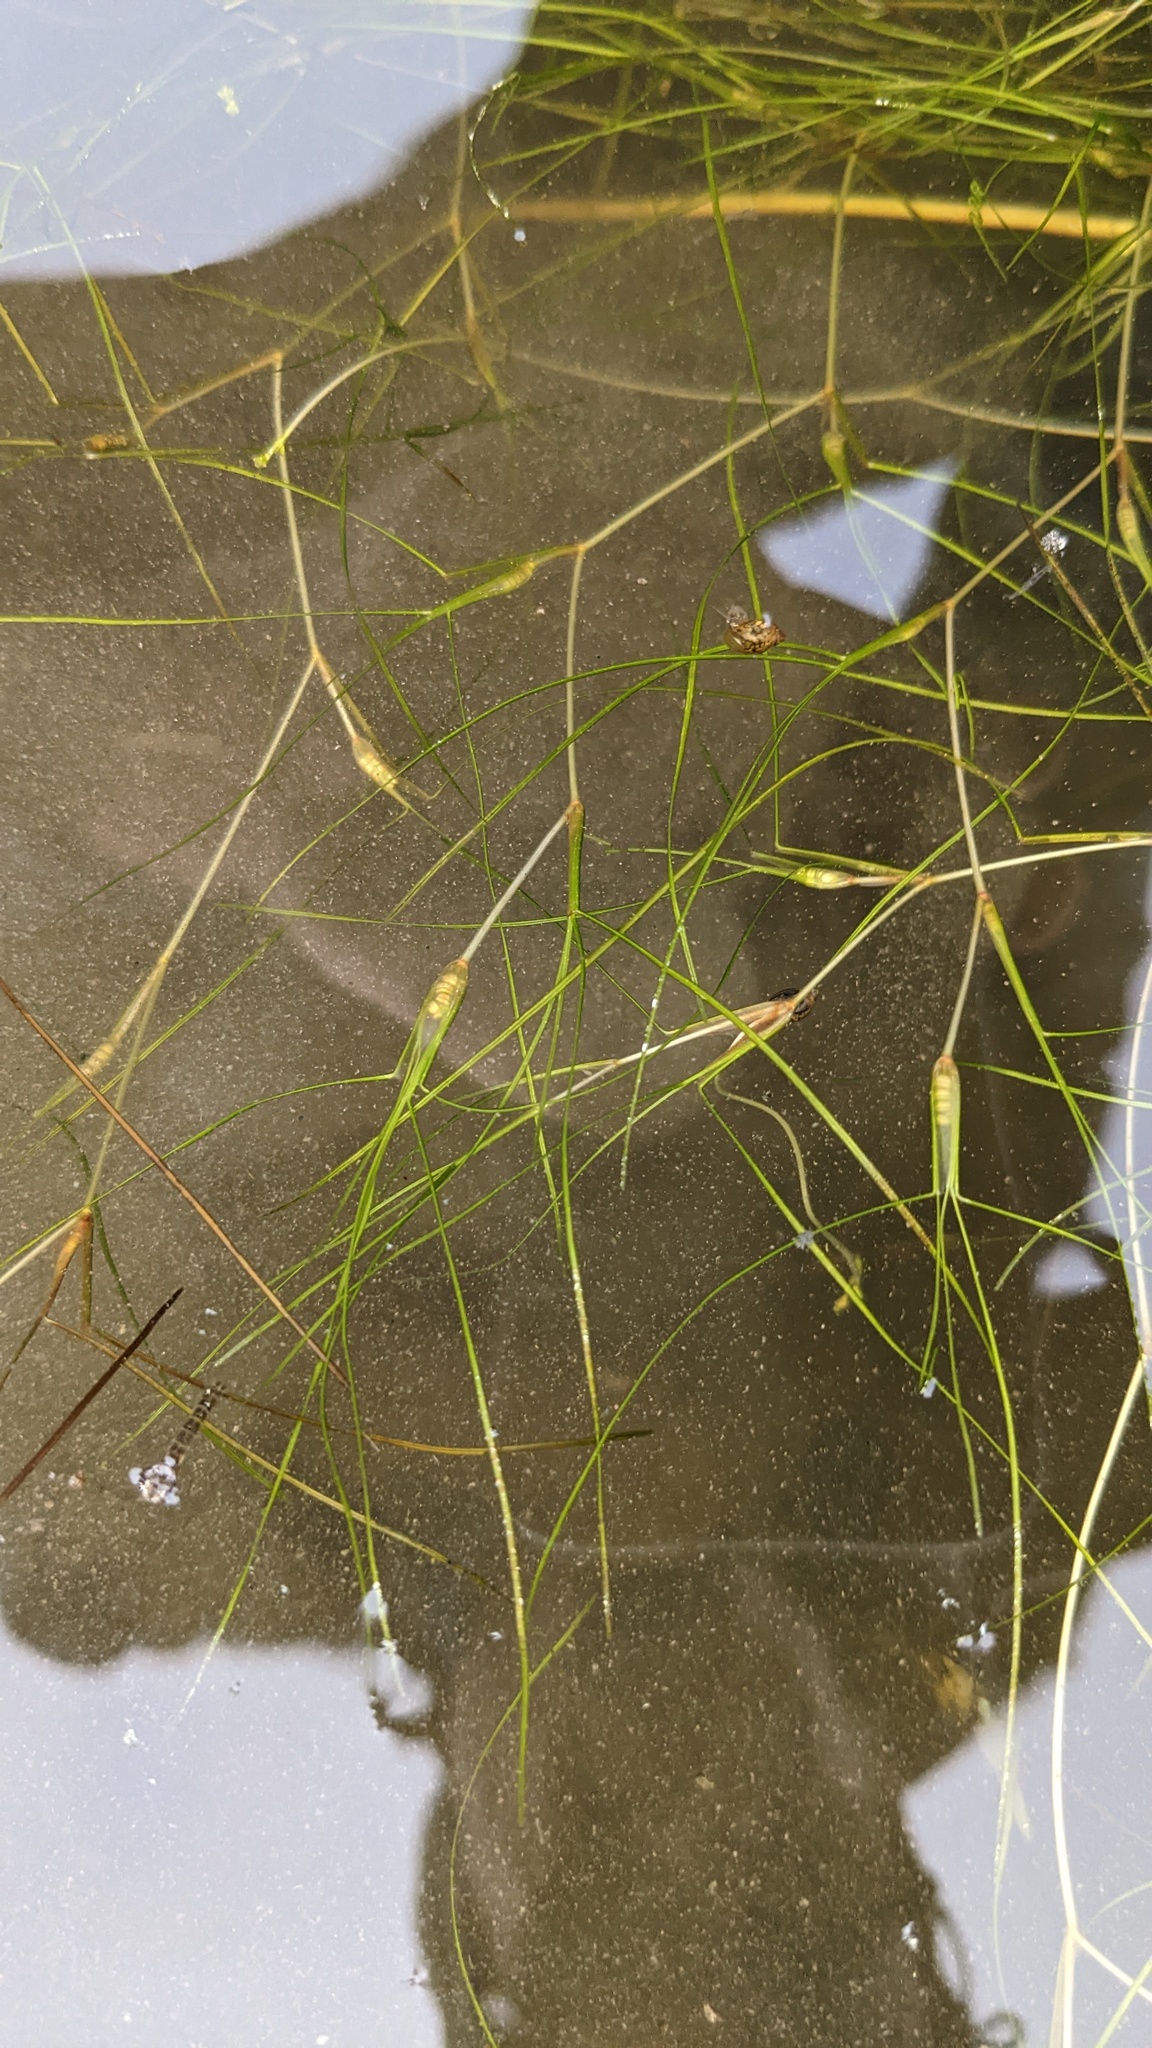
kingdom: Plantae
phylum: Tracheophyta
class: Liliopsida
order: Alismatales
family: Ruppiaceae
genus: Ruppia
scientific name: Ruppia cirrhosa
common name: Spiral tasselweed
